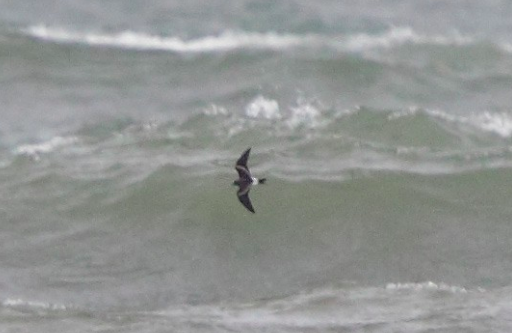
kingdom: Animalia
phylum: Chordata
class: Aves
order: Procellariiformes
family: Hydrobatidae
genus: Oceanodroma
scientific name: Oceanodroma leucorhoa
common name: Leach's storm-petrel
